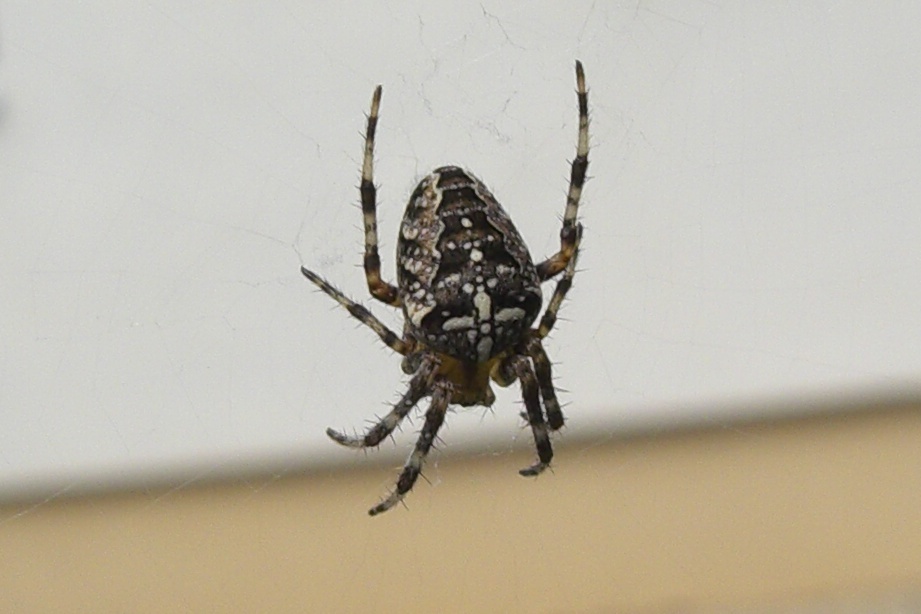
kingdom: Animalia
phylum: Arthropoda
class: Arachnida
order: Araneae
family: Araneidae
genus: Araneus
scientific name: Araneus diadematus
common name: Cross orbweaver
